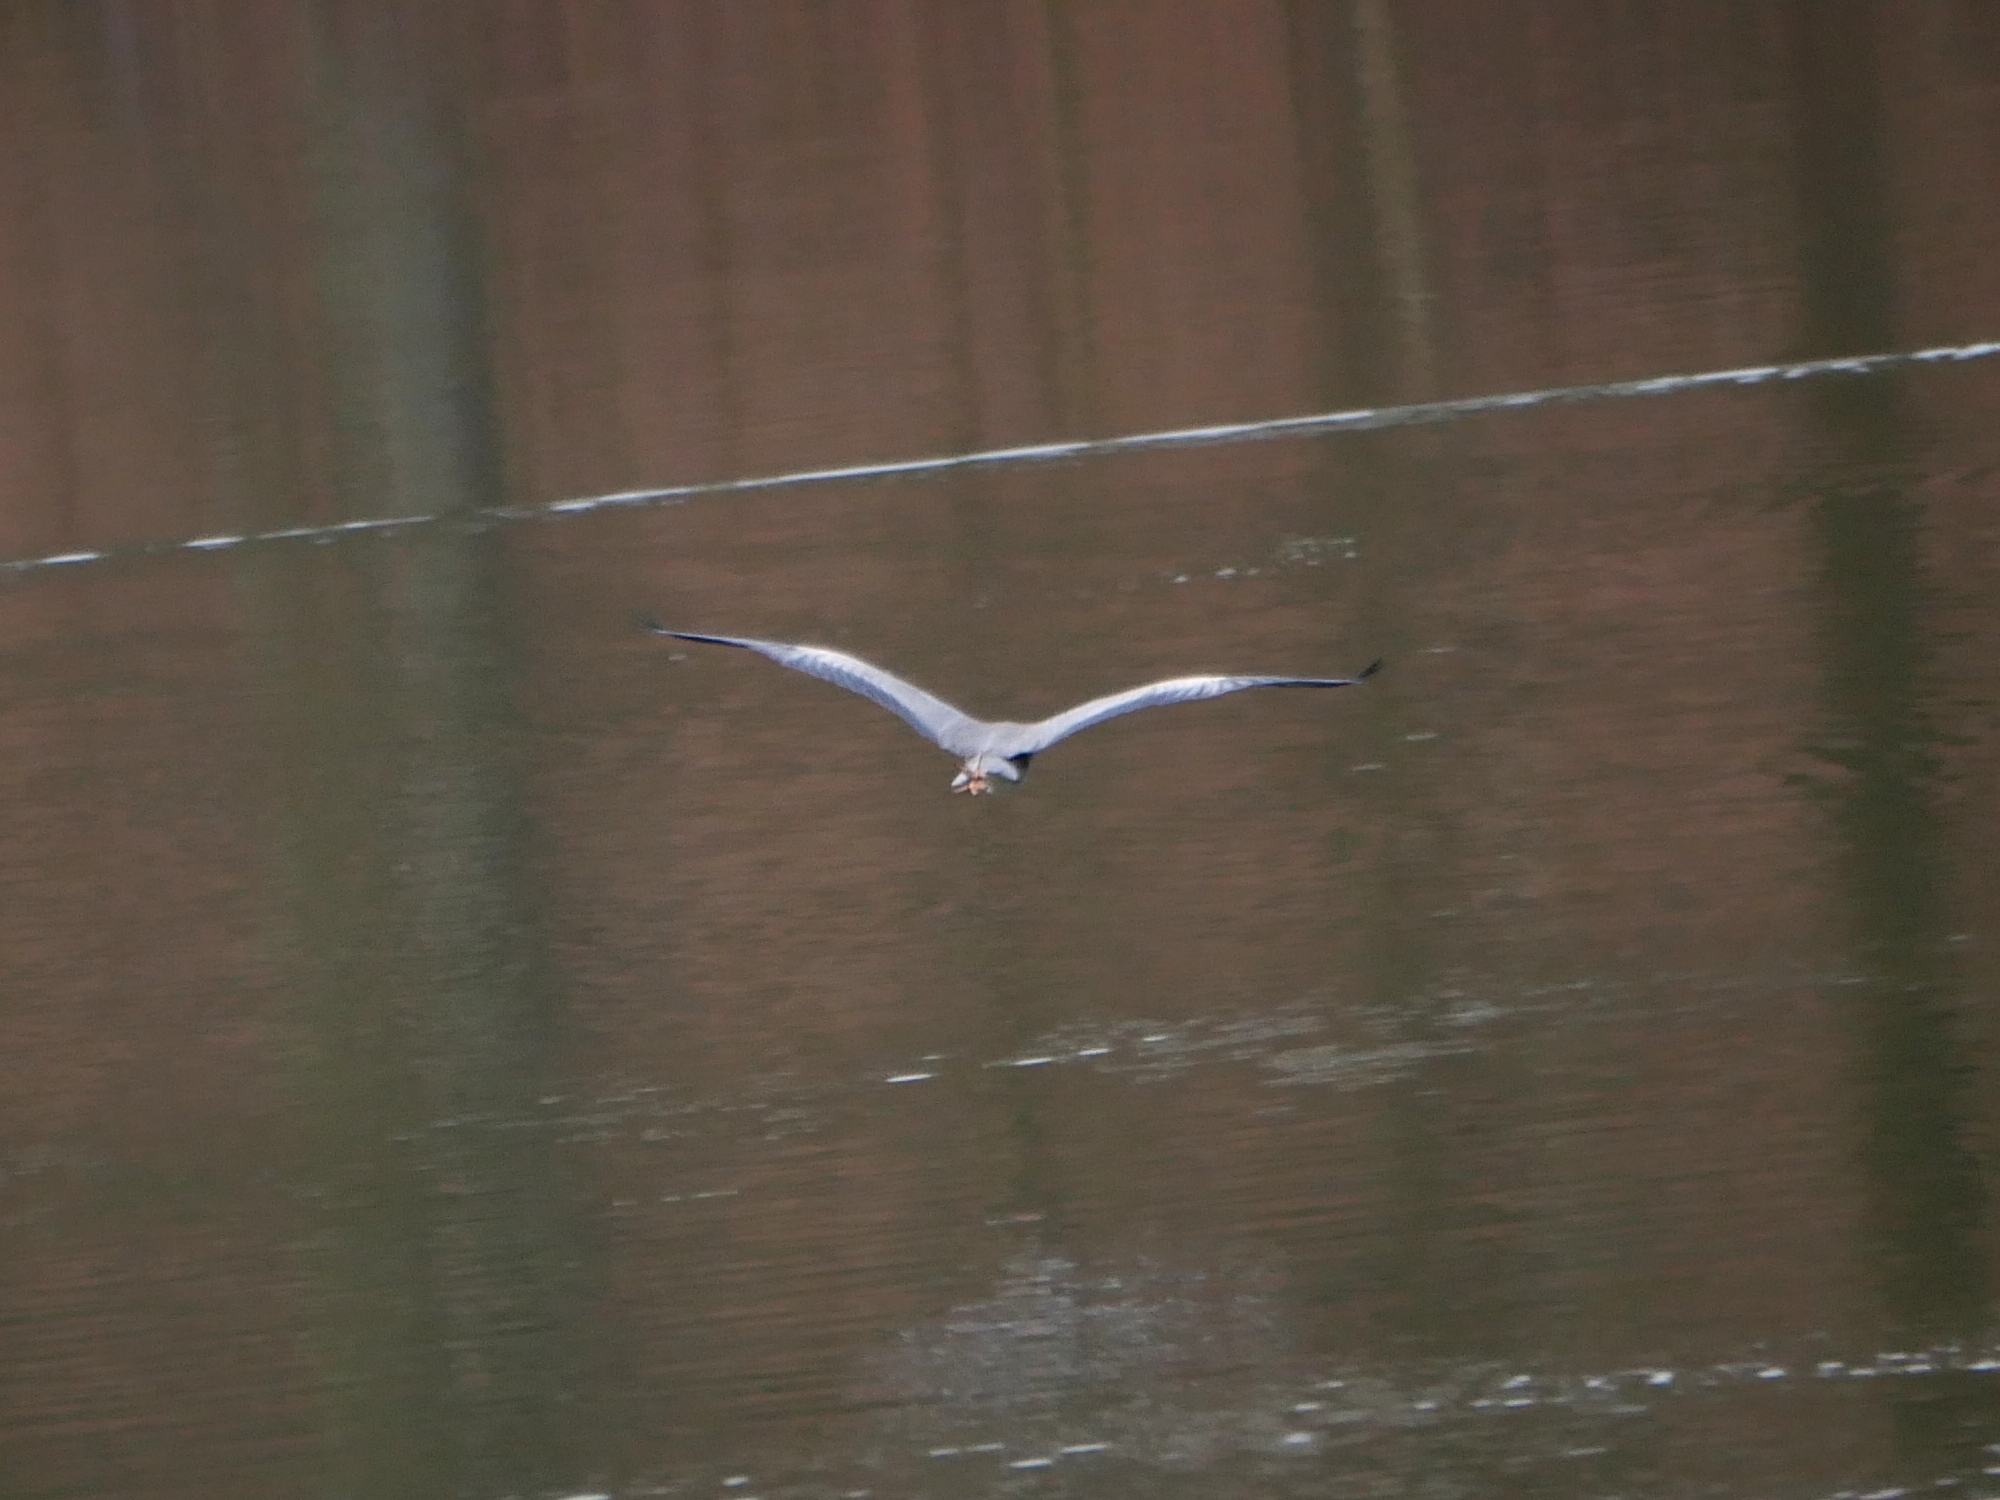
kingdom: Animalia
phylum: Chordata
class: Aves
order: Pelecaniformes
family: Ardeidae
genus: Ardea
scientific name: Ardea cinerea
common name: Grey heron
